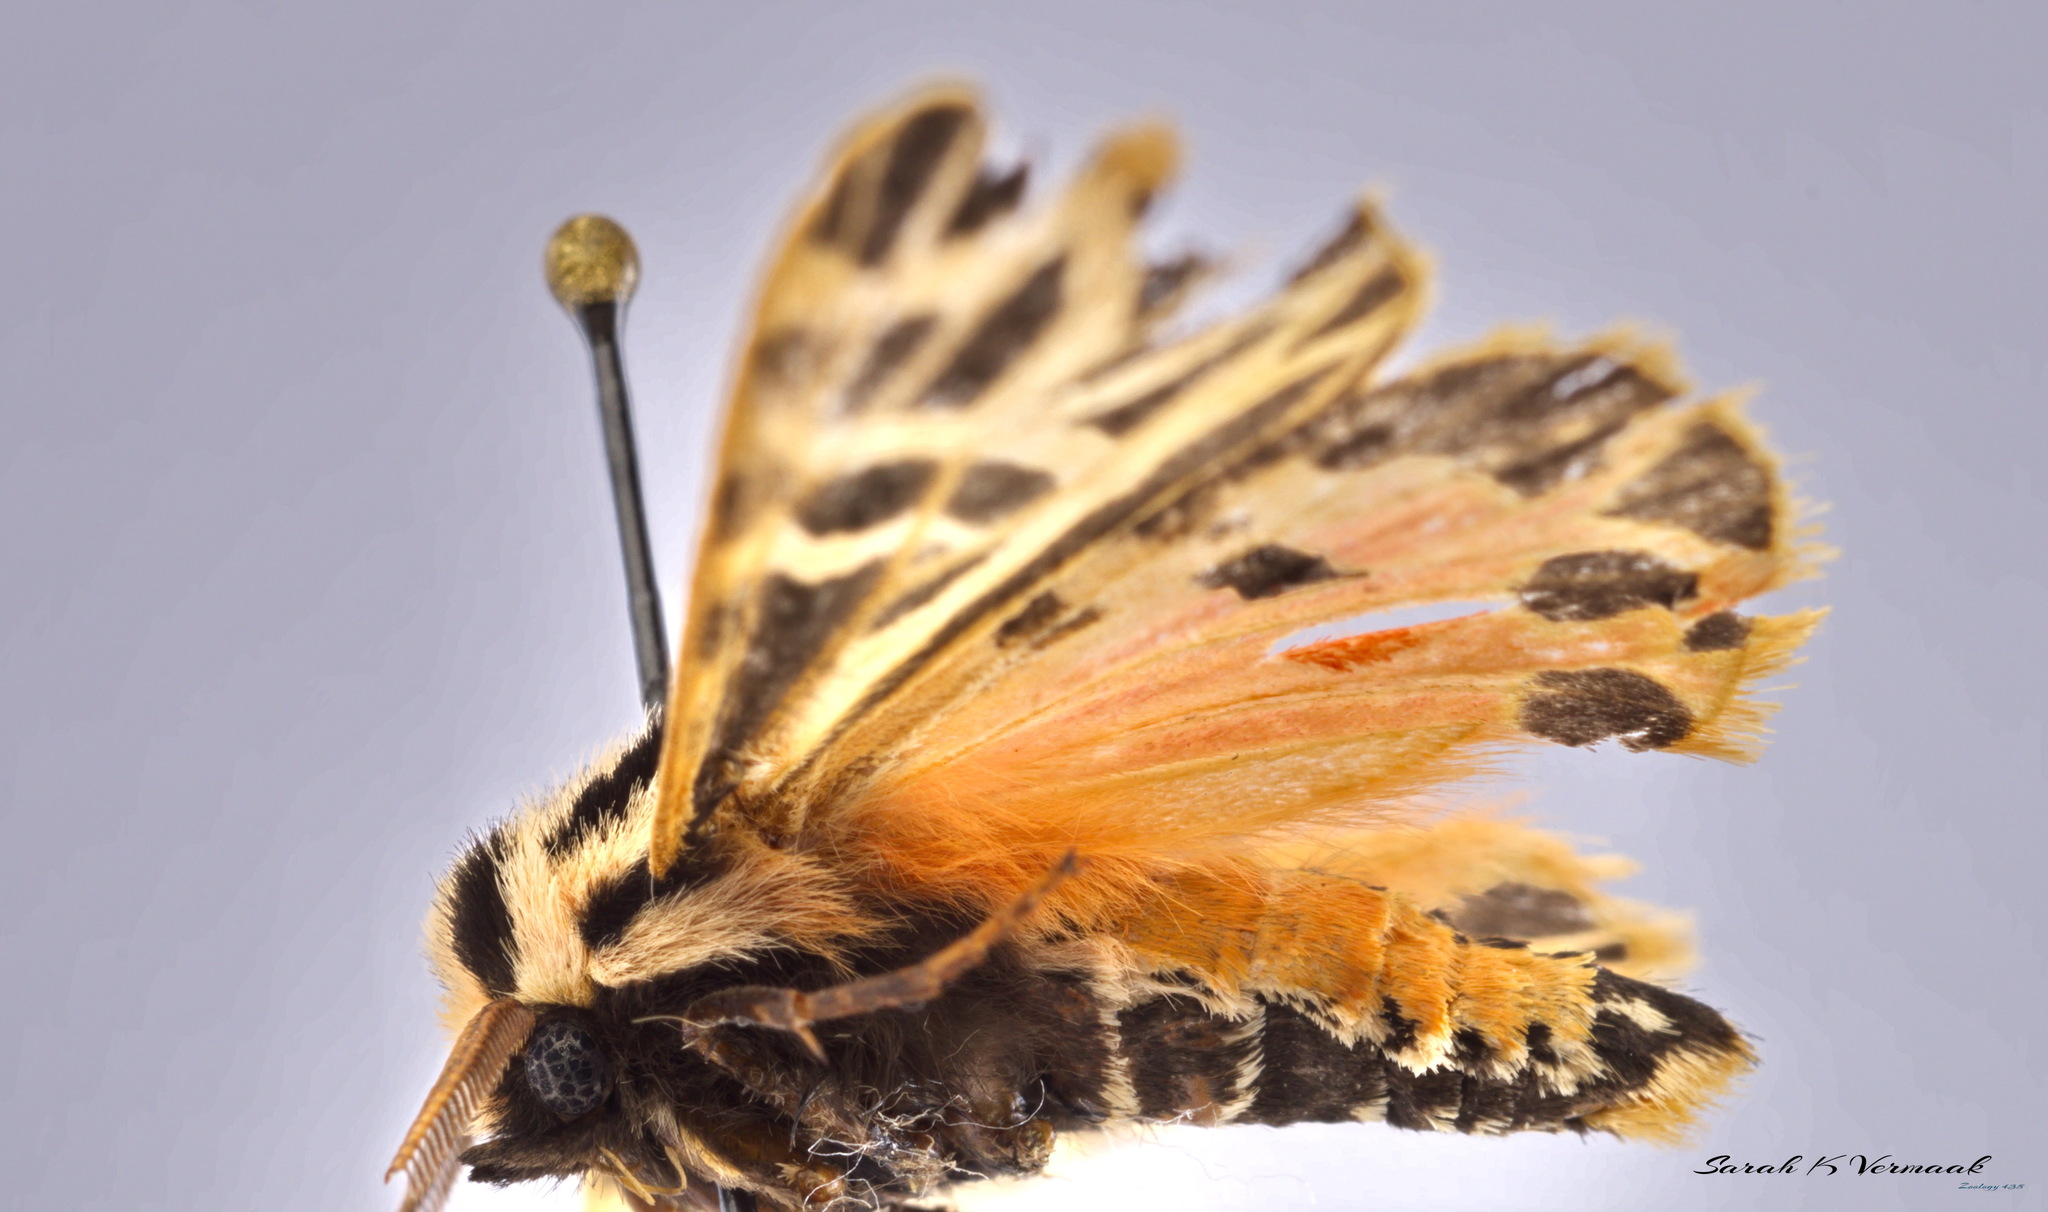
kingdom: Animalia
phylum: Arthropoda
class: Insecta
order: Lepidoptera
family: Erebidae
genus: Grammia
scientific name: Grammia parthenice
